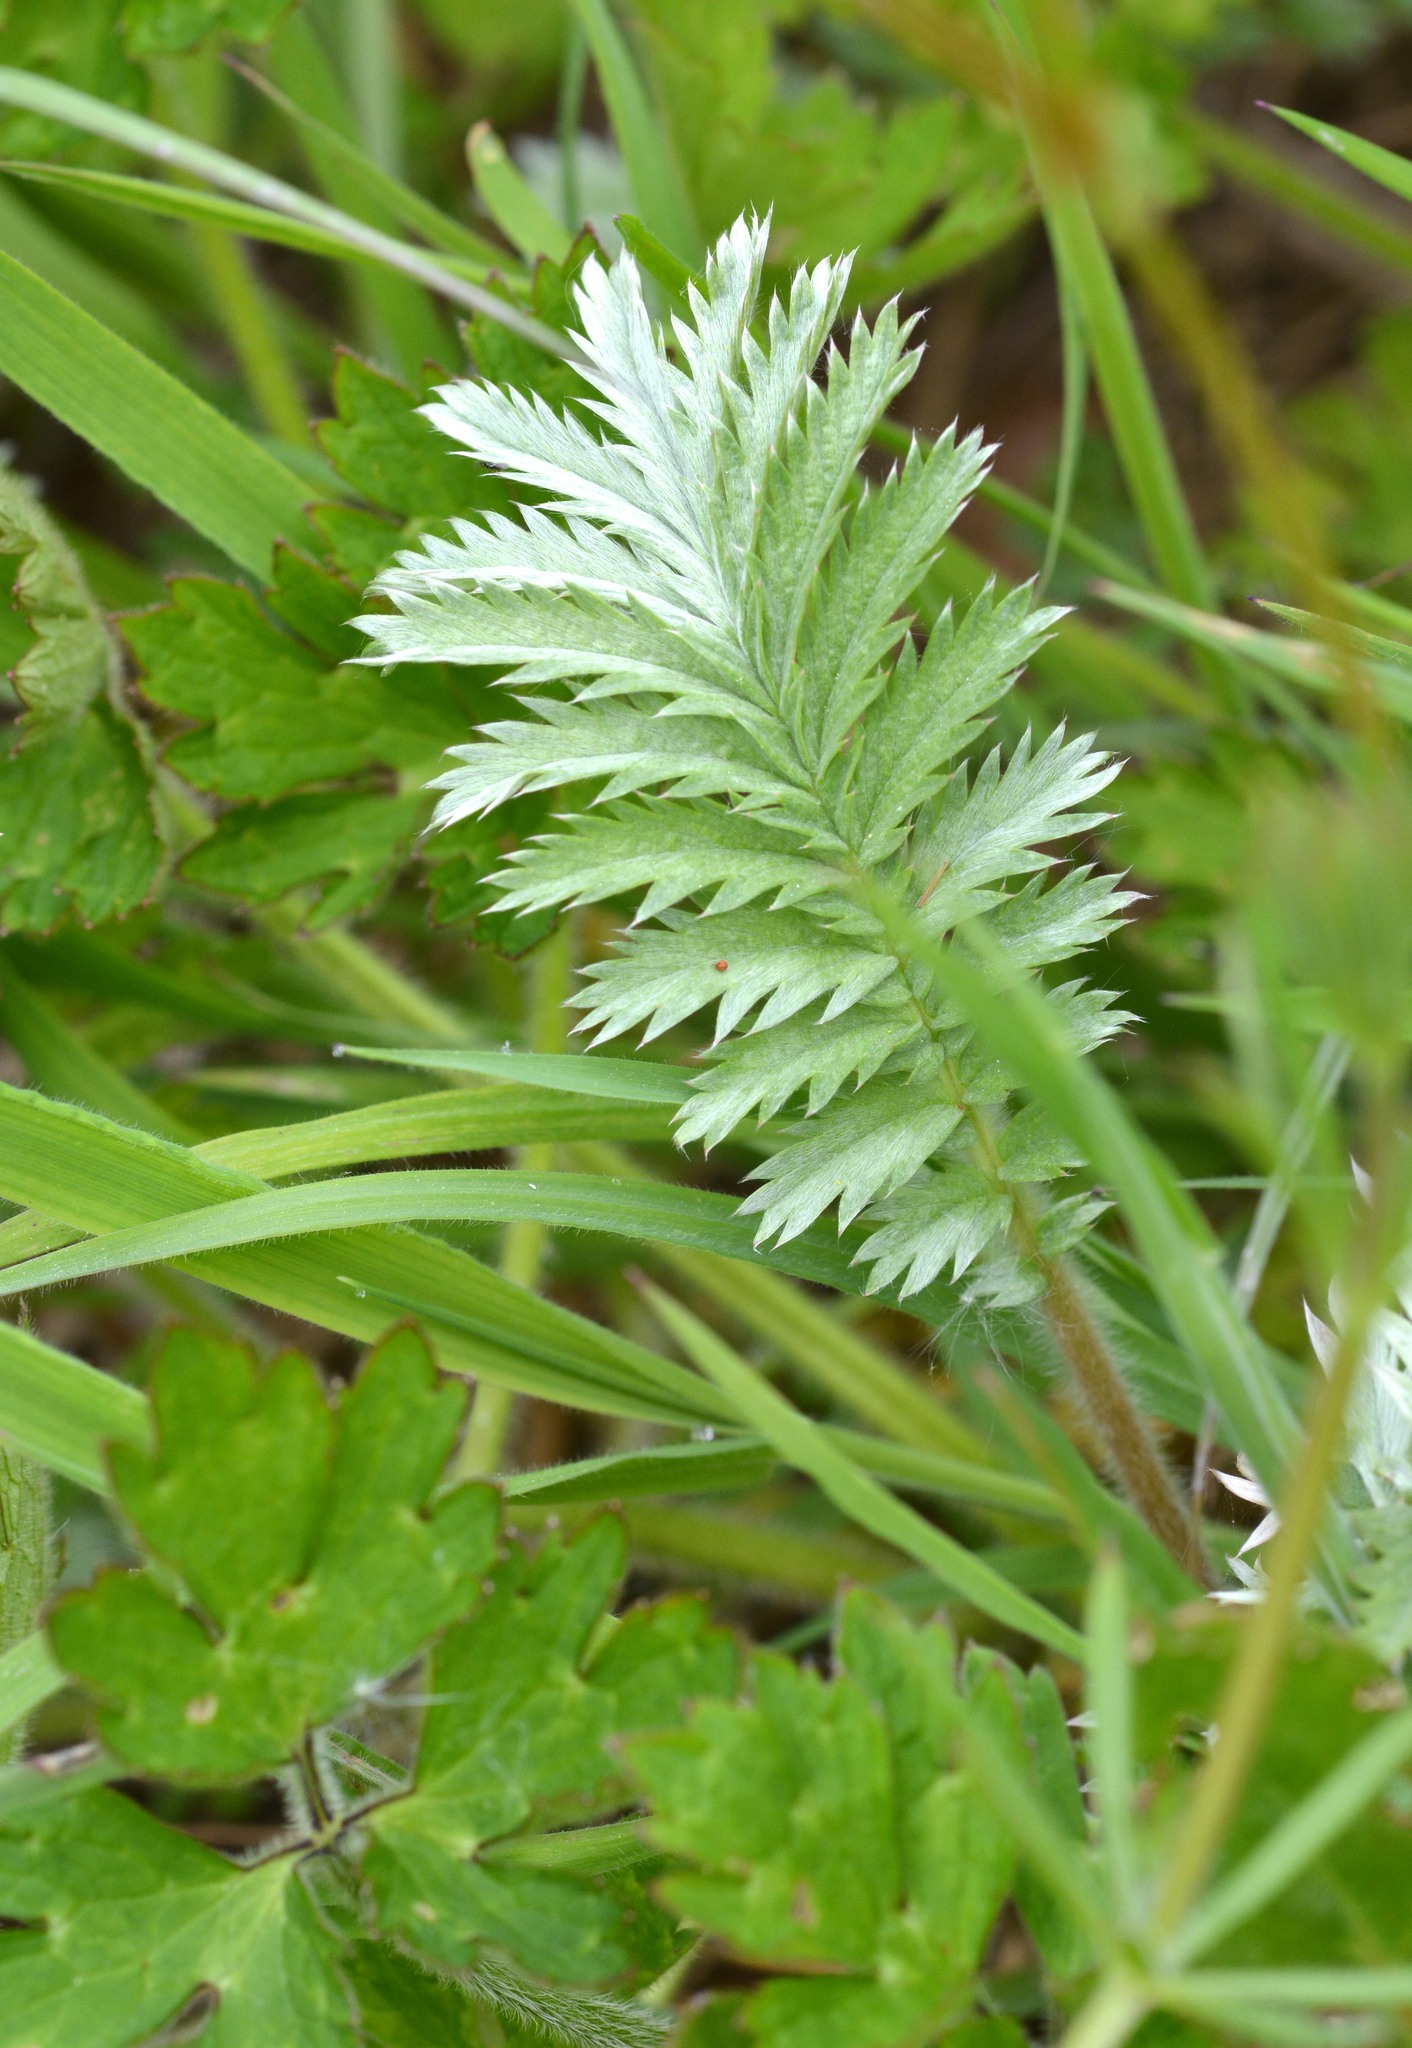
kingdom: Plantae
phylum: Tracheophyta
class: Magnoliopsida
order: Rosales
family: Rosaceae
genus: Argentina
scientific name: Argentina anserina
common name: Common silverweed
